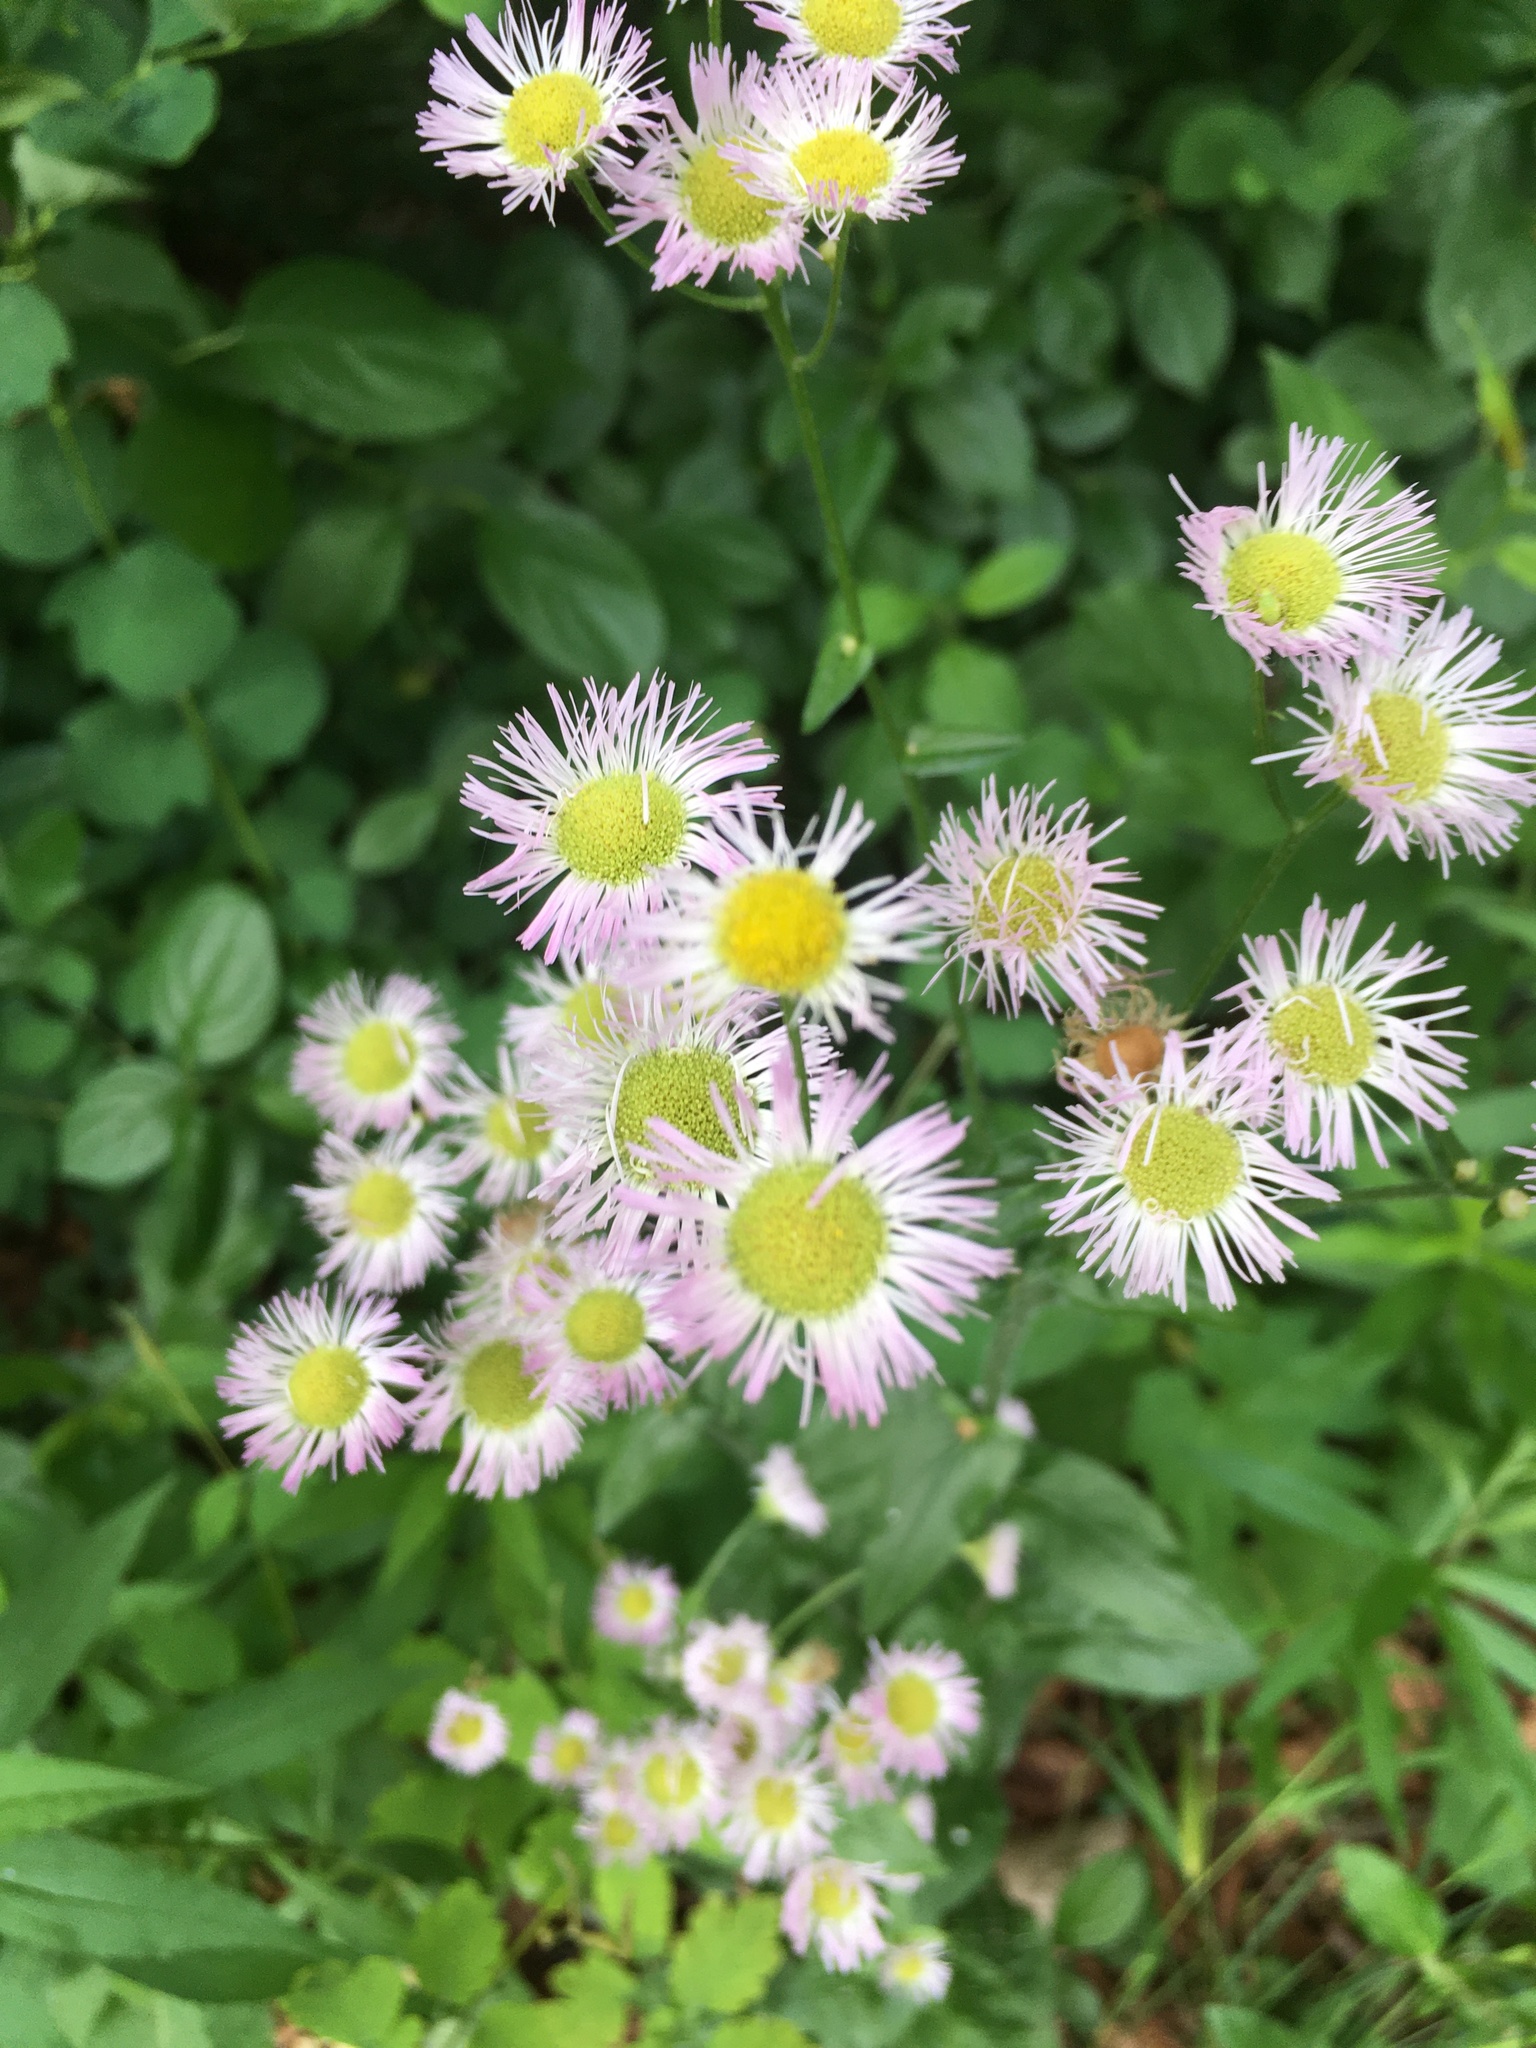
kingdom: Plantae
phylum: Tracheophyta
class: Magnoliopsida
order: Asterales
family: Asteraceae
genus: Erigeron
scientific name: Erigeron philadelphicus
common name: Robin's-plantain
